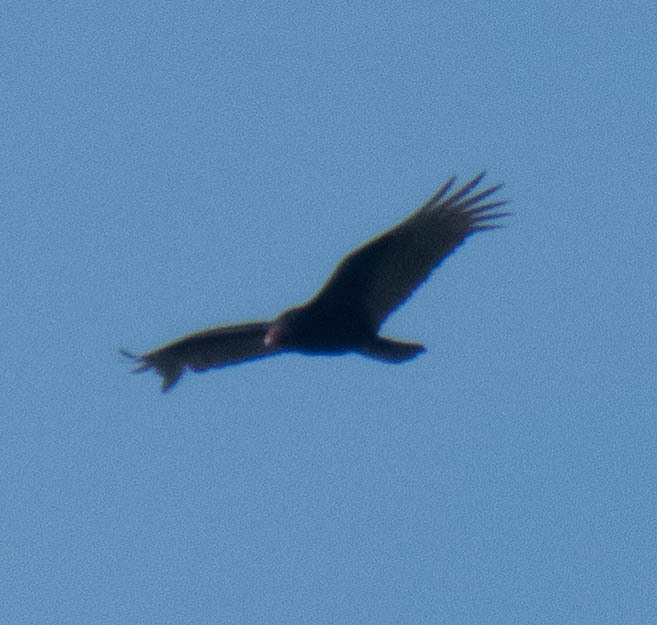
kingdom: Animalia
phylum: Chordata
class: Aves
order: Accipitriformes
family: Cathartidae
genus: Cathartes
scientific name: Cathartes aura
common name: Turkey vulture
